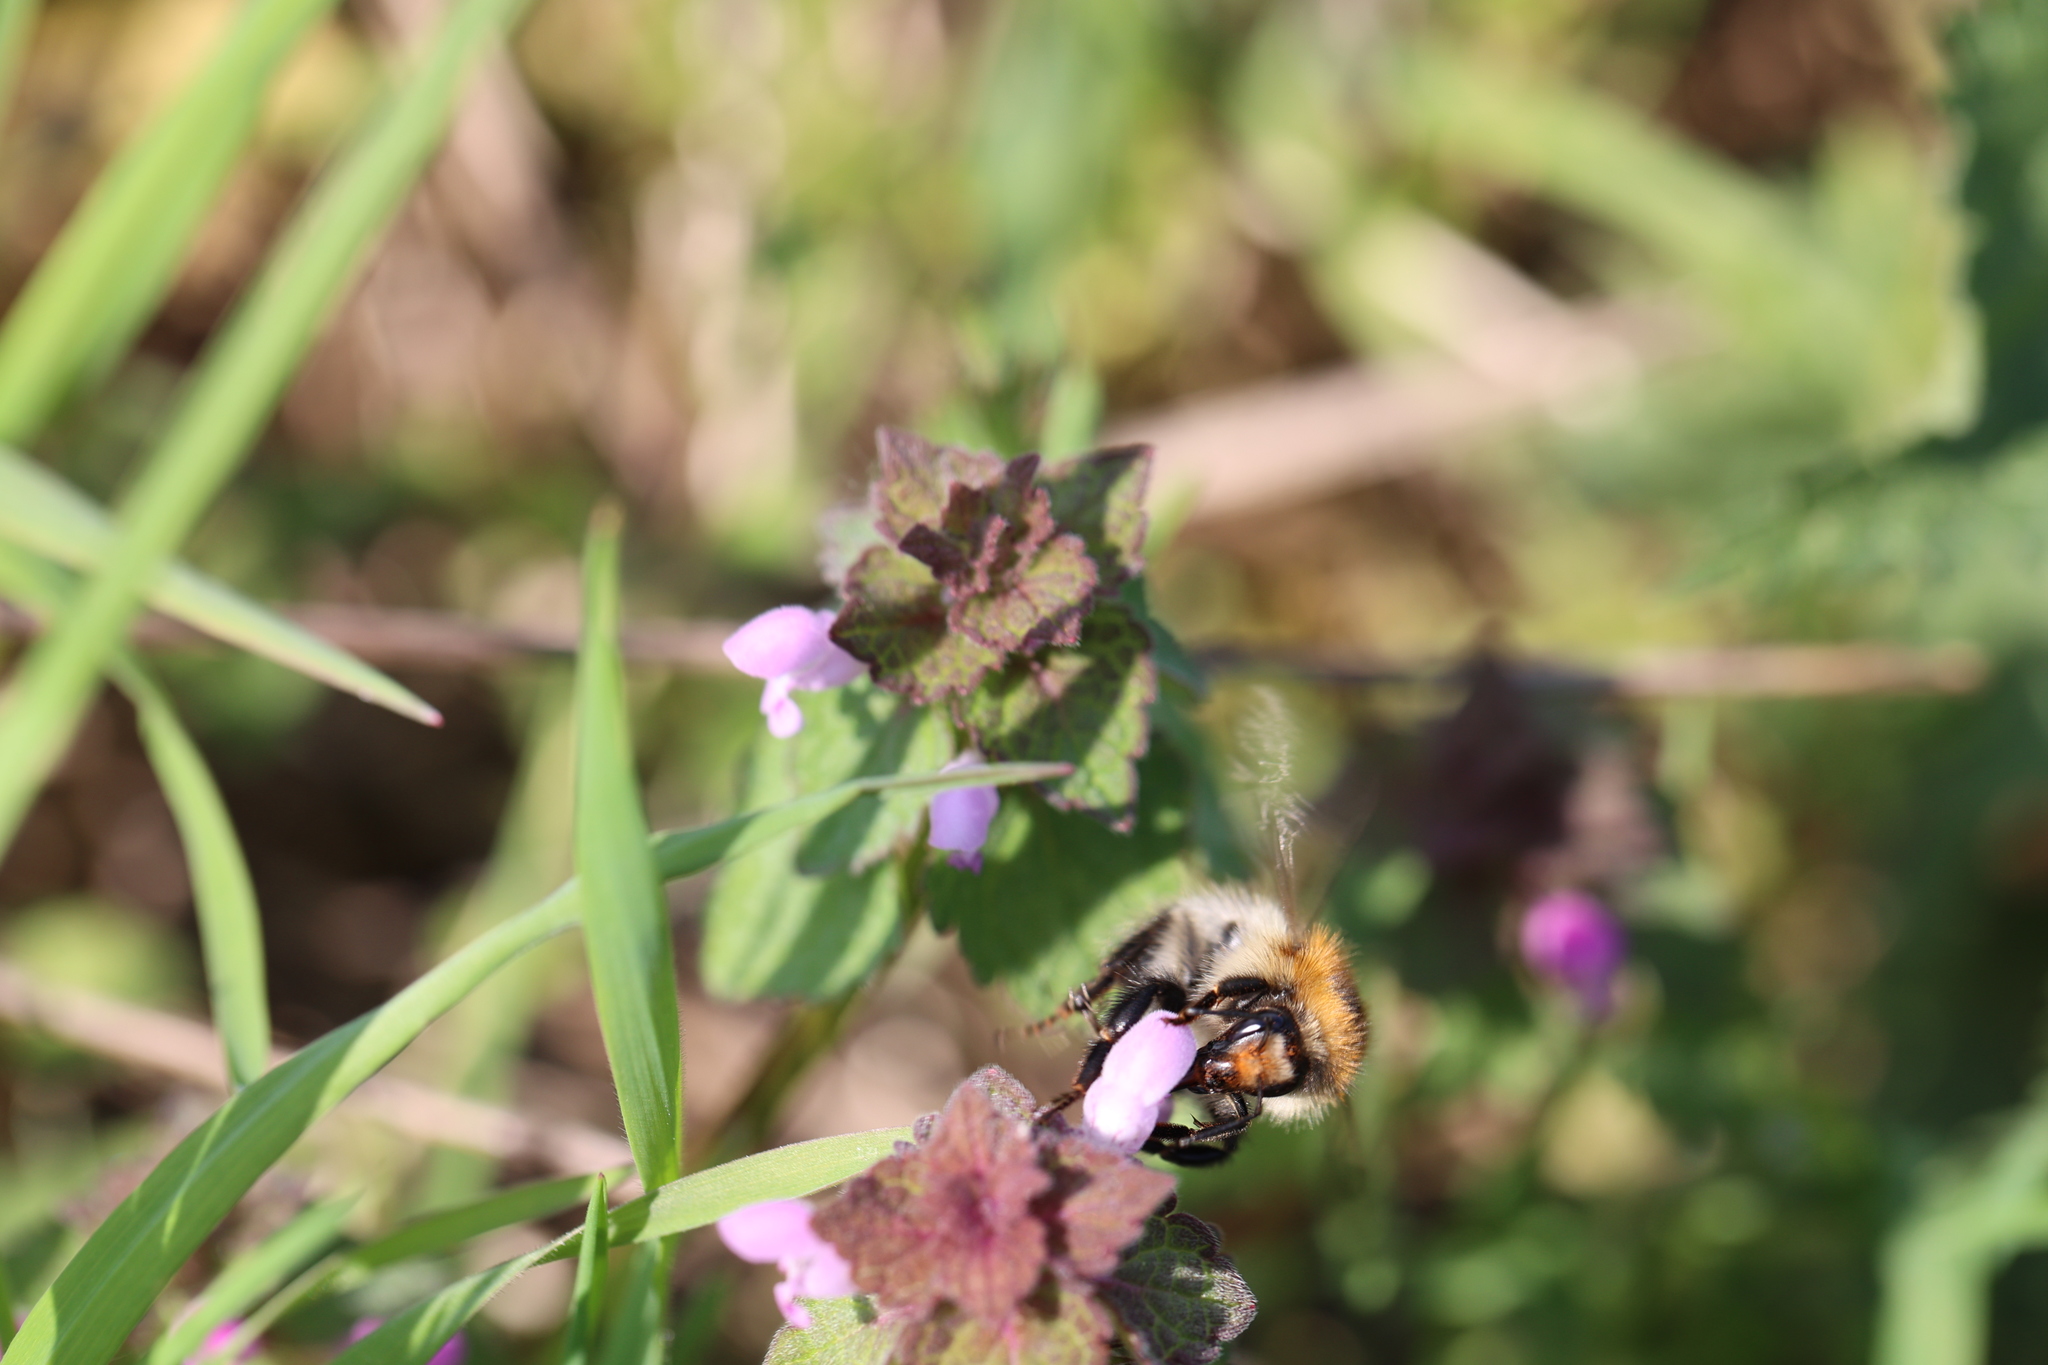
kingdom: Animalia
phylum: Arthropoda
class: Insecta
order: Hymenoptera
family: Apidae
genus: Bombus
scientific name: Bombus pascuorum
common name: Common carder bee
